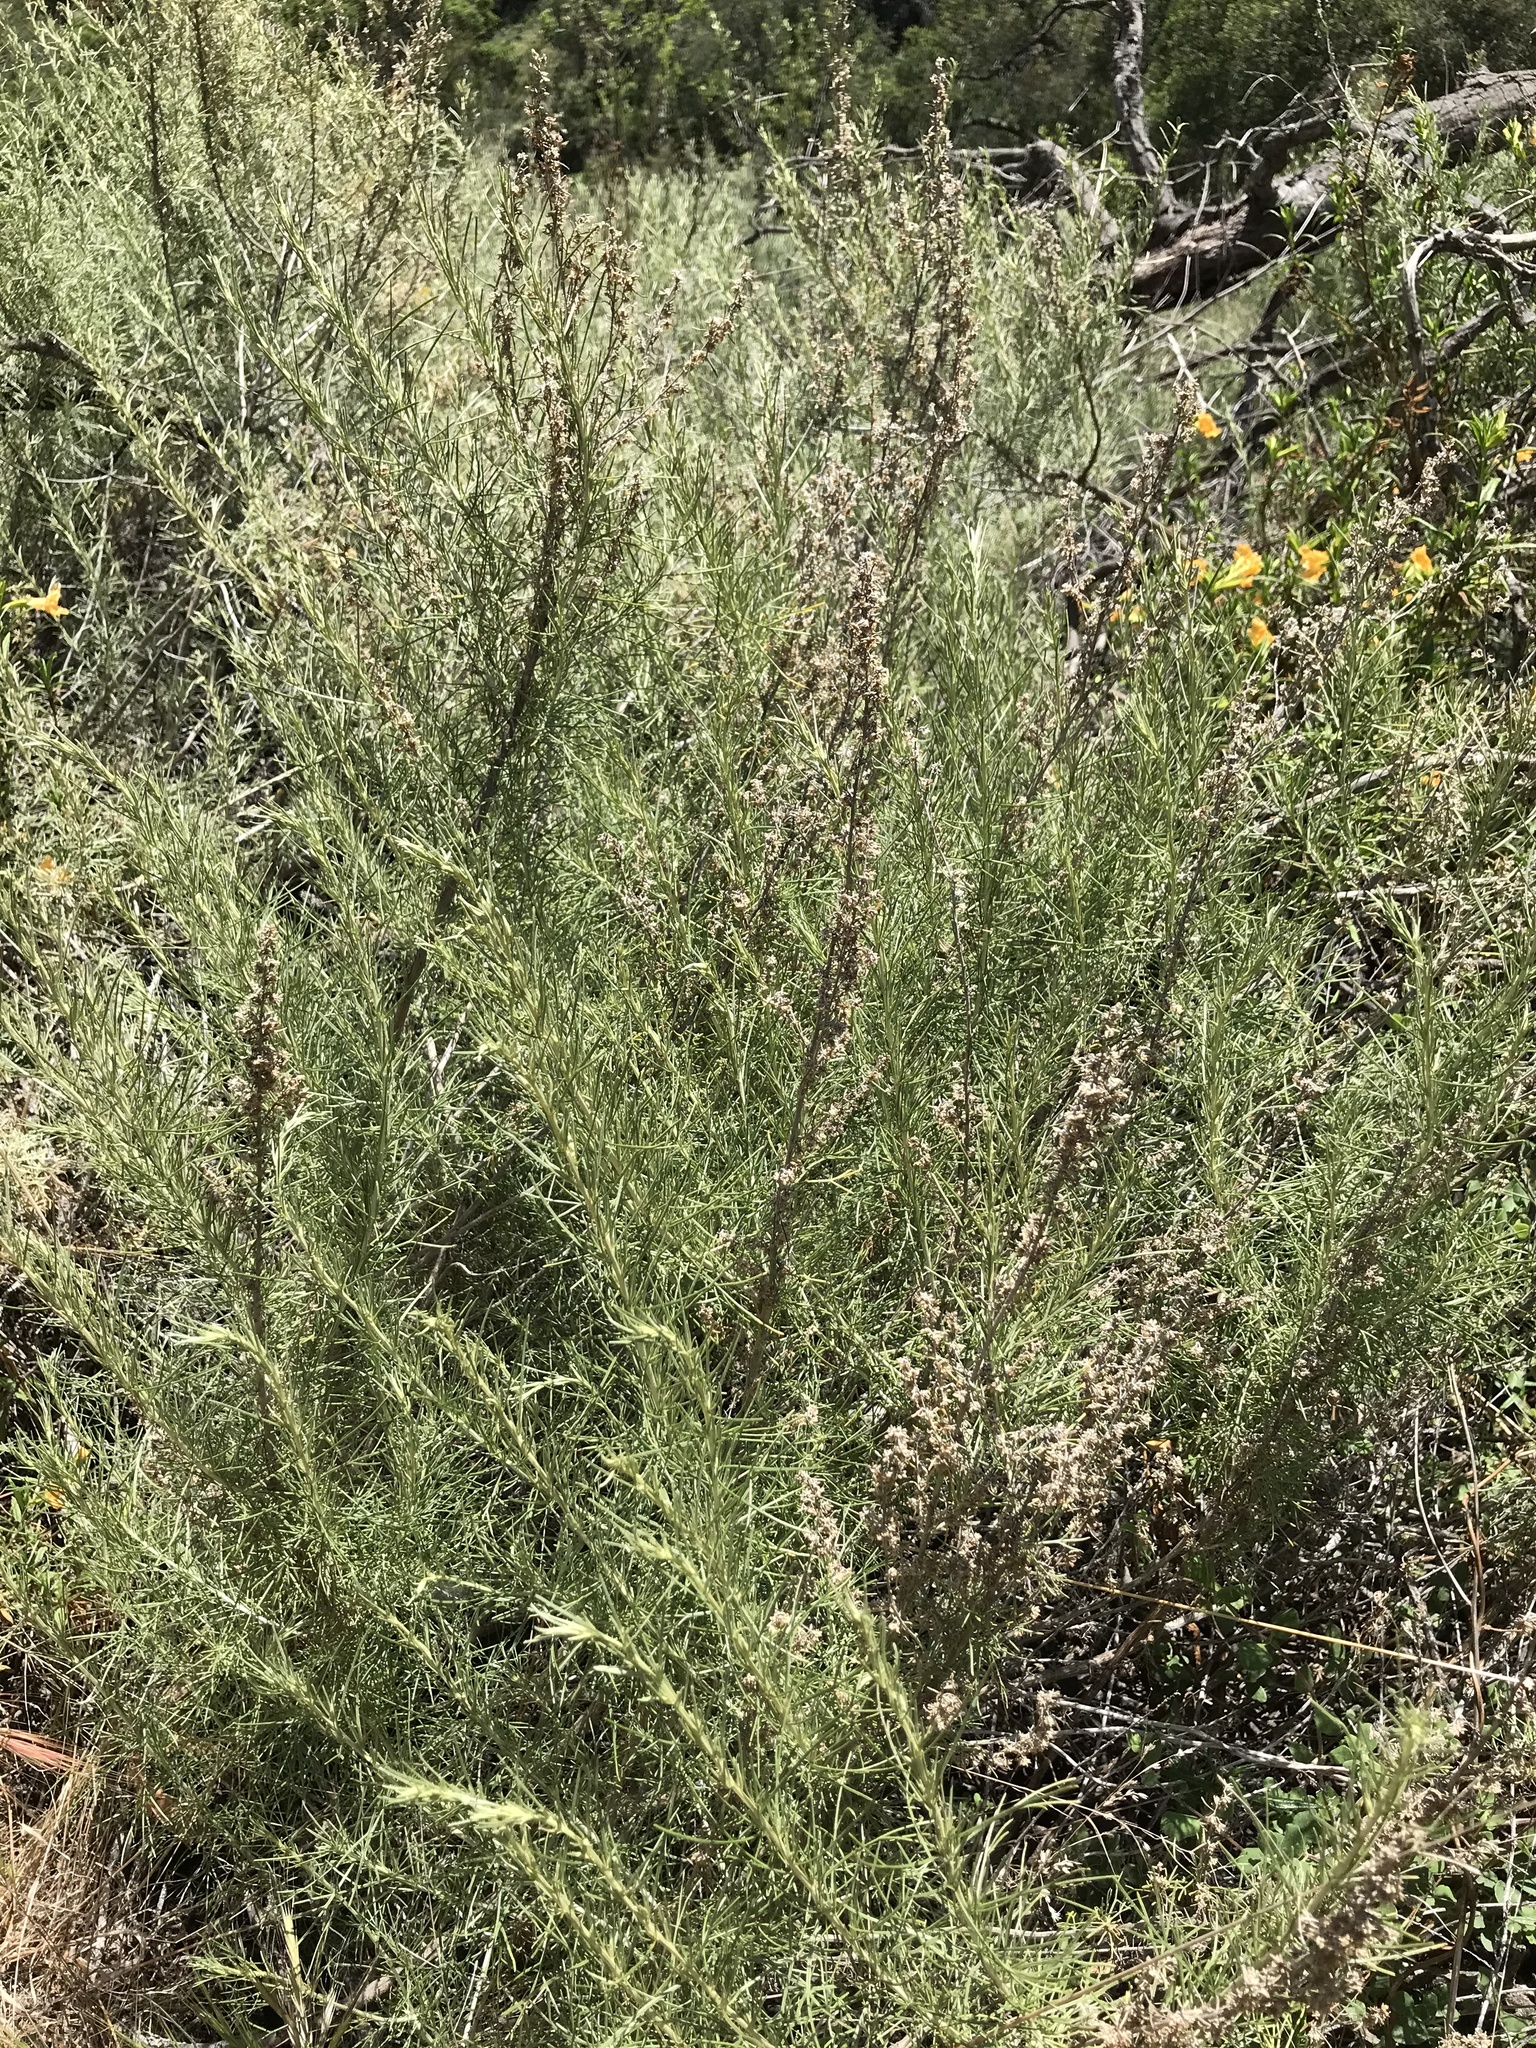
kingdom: Plantae
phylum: Tracheophyta
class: Magnoliopsida
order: Asterales
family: Asteraceae
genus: Artemisia
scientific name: Artemisia californica
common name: California sagebrush
